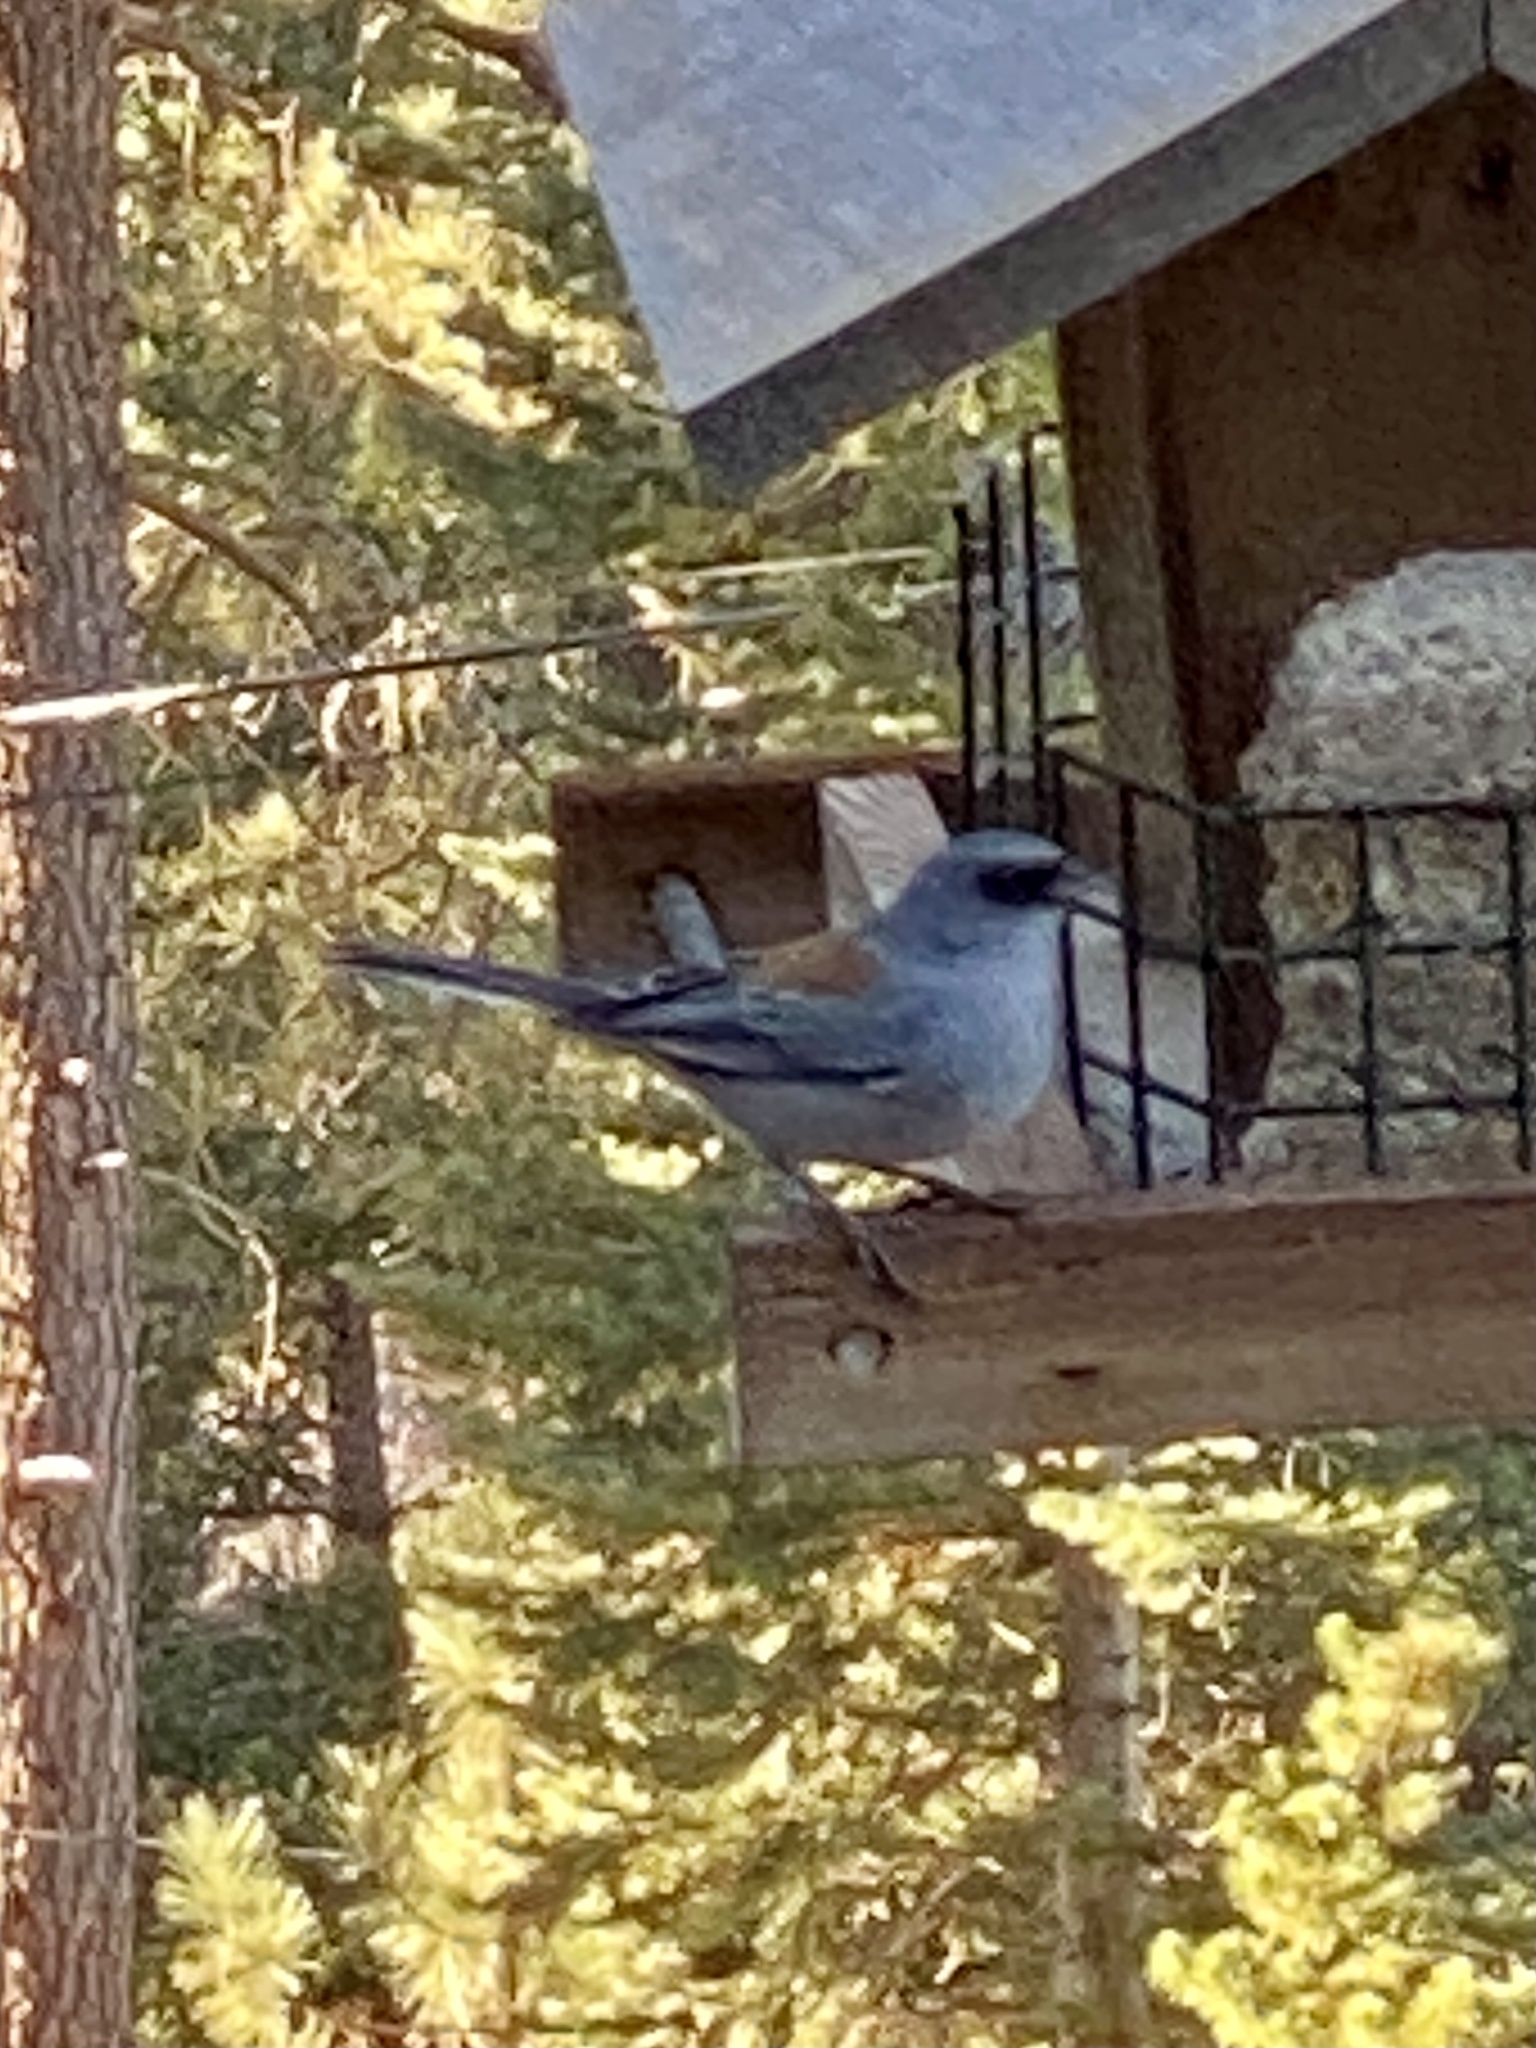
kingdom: Animalia
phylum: Chordata
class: Aves
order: Passeriformes
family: Passerellidae
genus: Junco
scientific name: Junco hyemalis
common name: Dark-eyed junco
